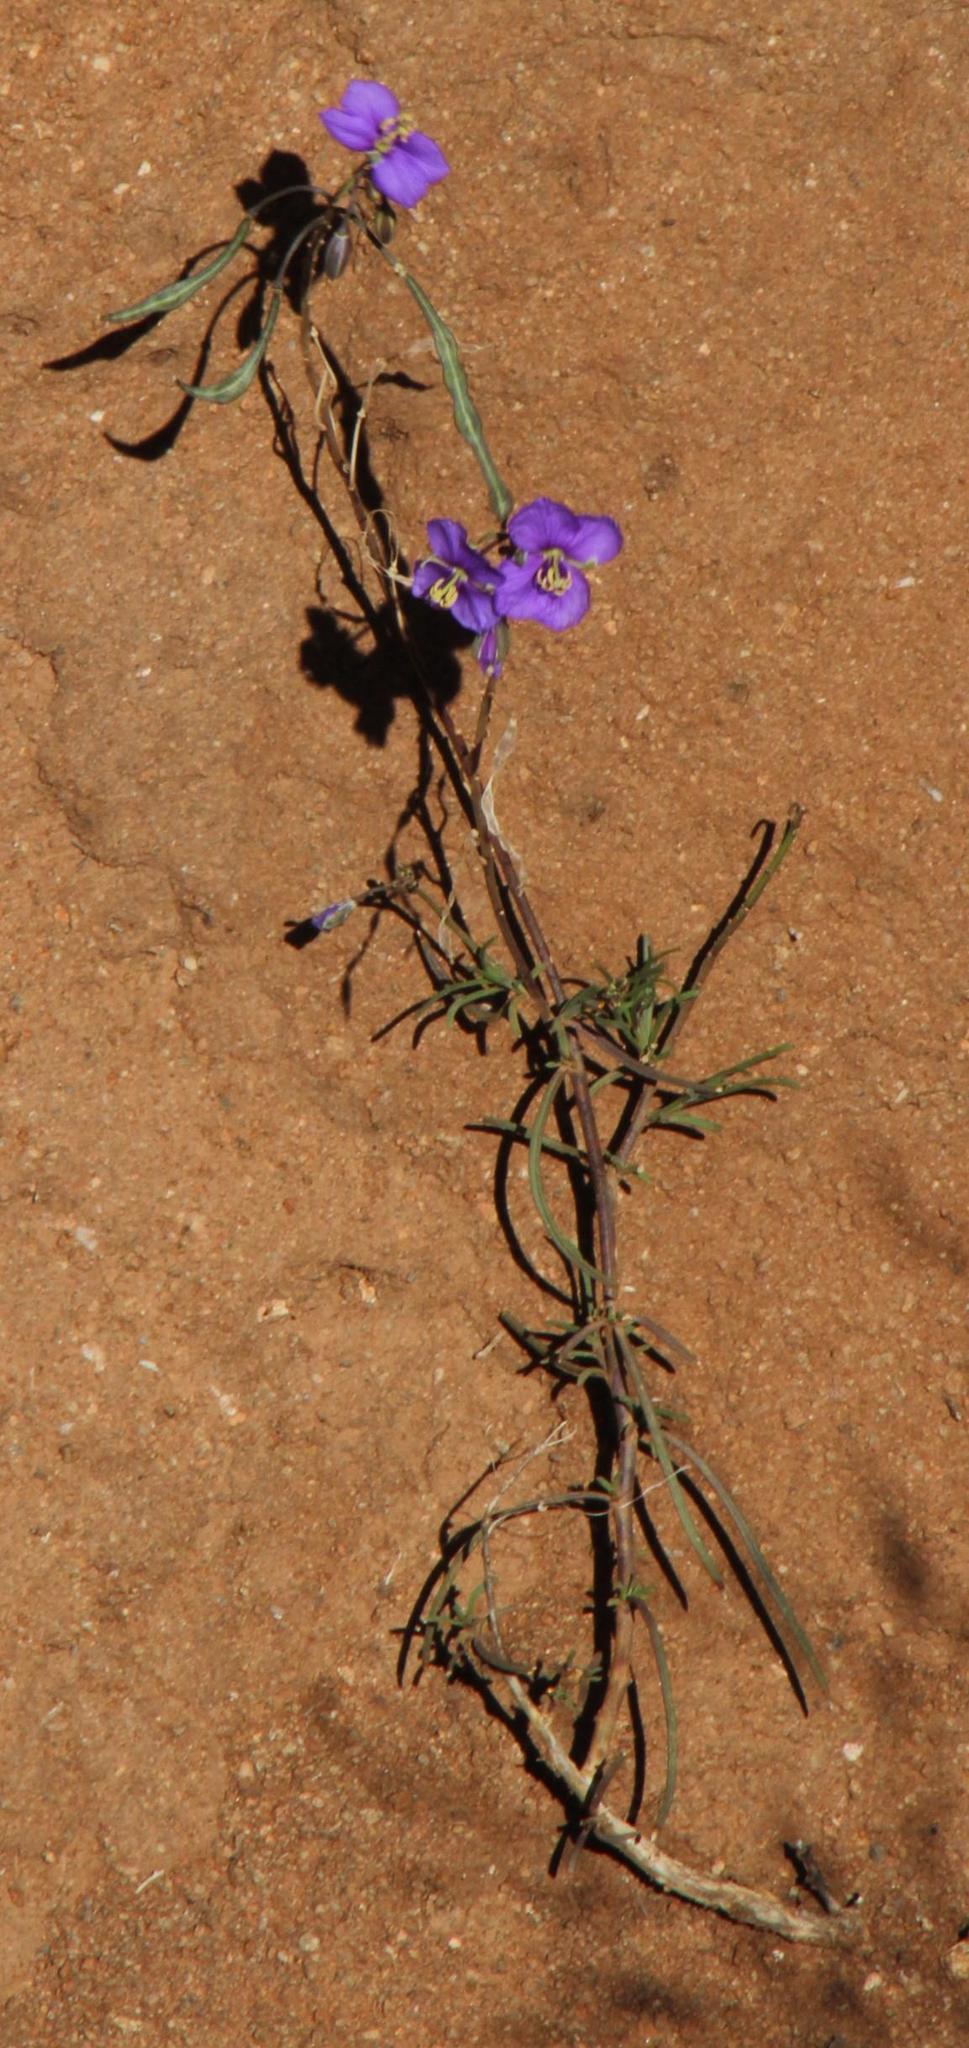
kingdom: Plantae
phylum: Tracheophyta
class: Magnoliopsida
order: Brassicales
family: Brassicaceae
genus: Heliophila
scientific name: Heliophila suavissima
